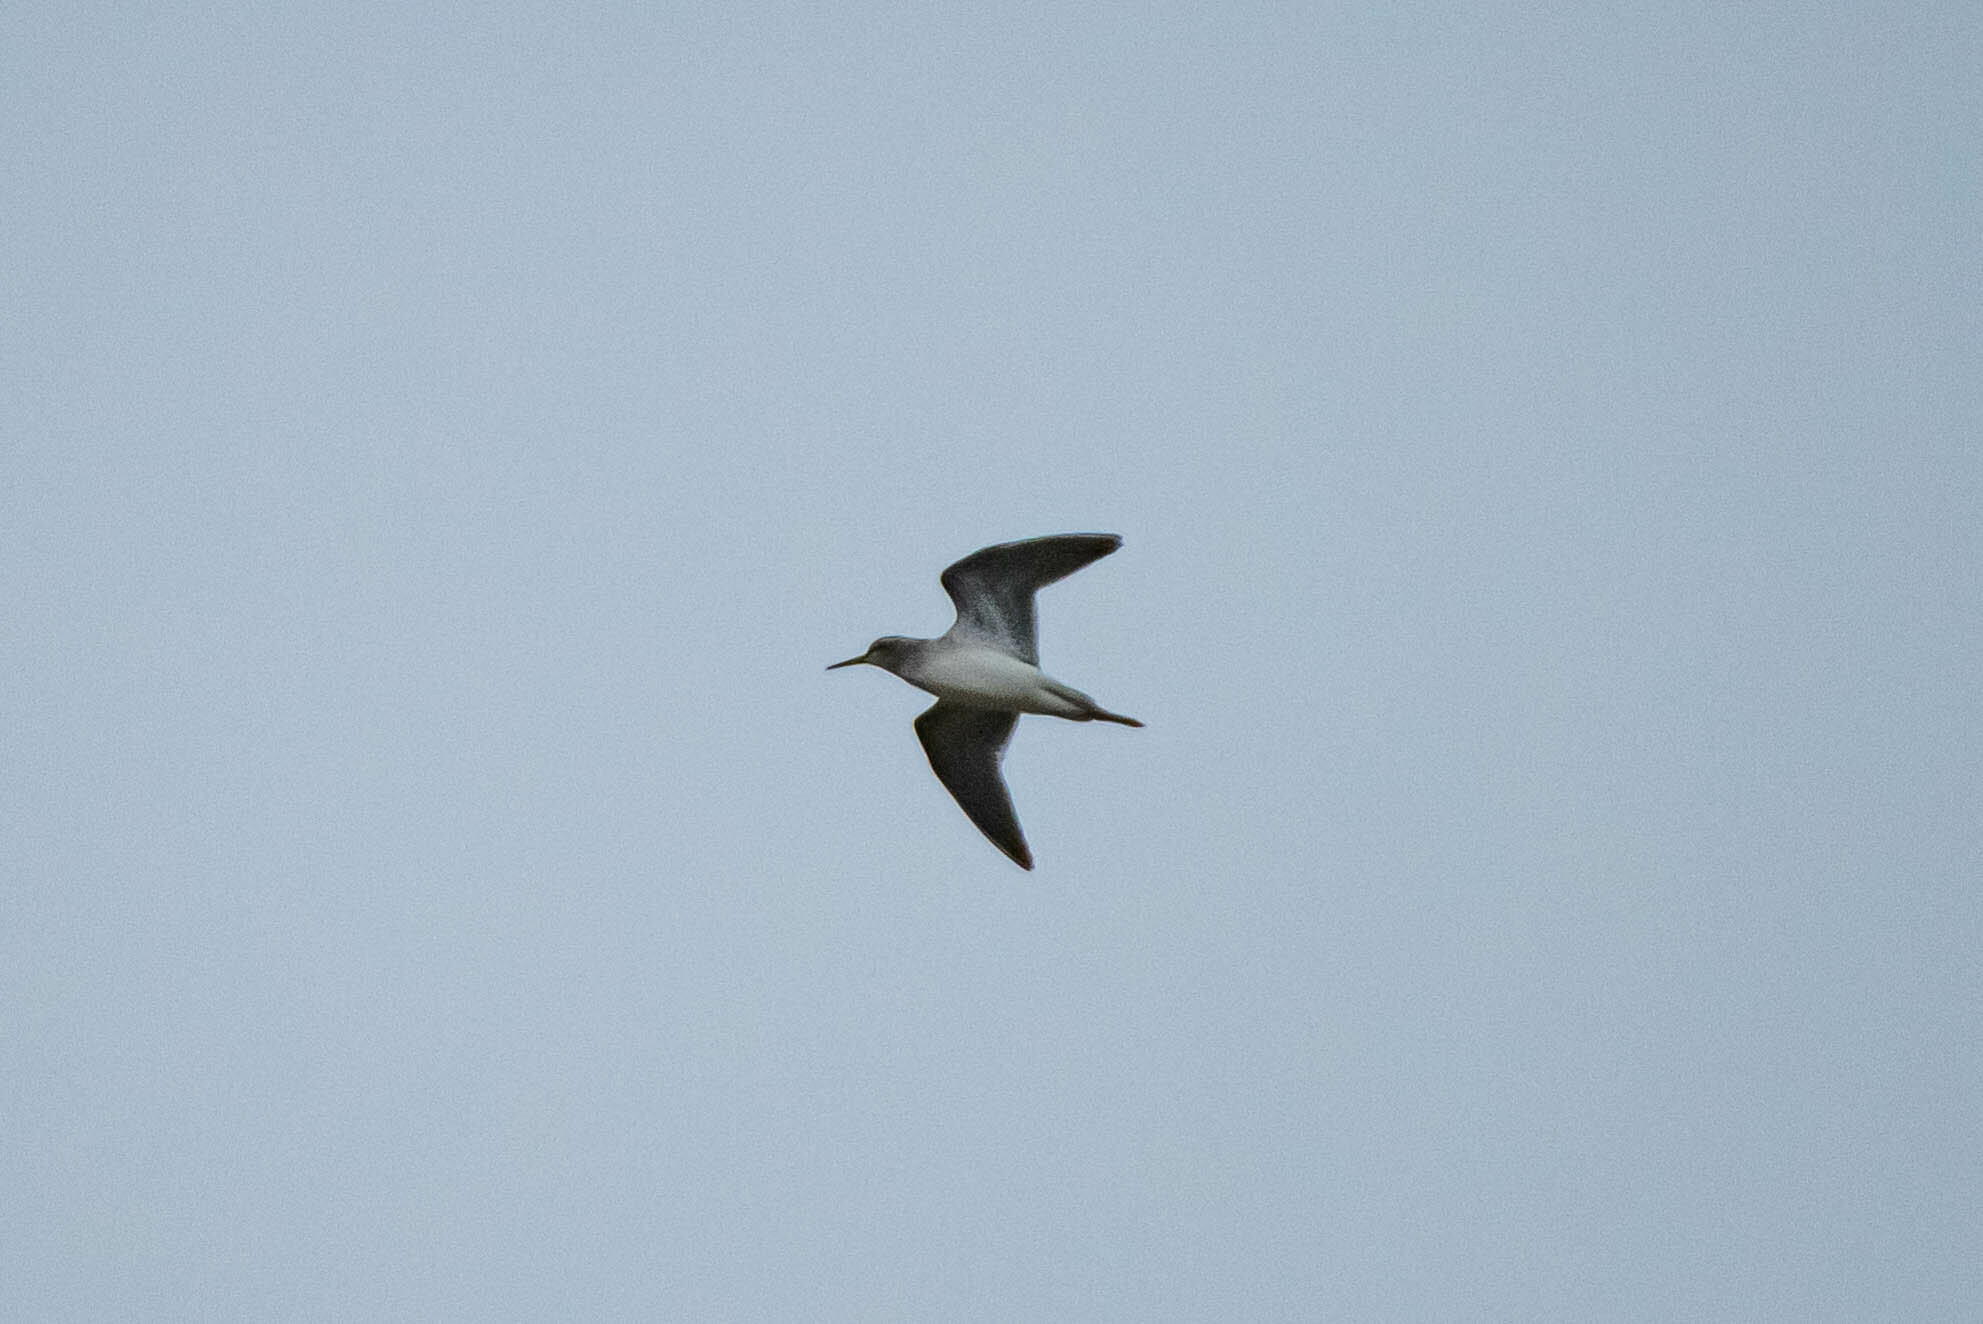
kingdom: Animalia
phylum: Chordata
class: Aves
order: Charadriiformes
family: Scolopacidae
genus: Tringa
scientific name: Tringa glareola
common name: Wood sandpiper
